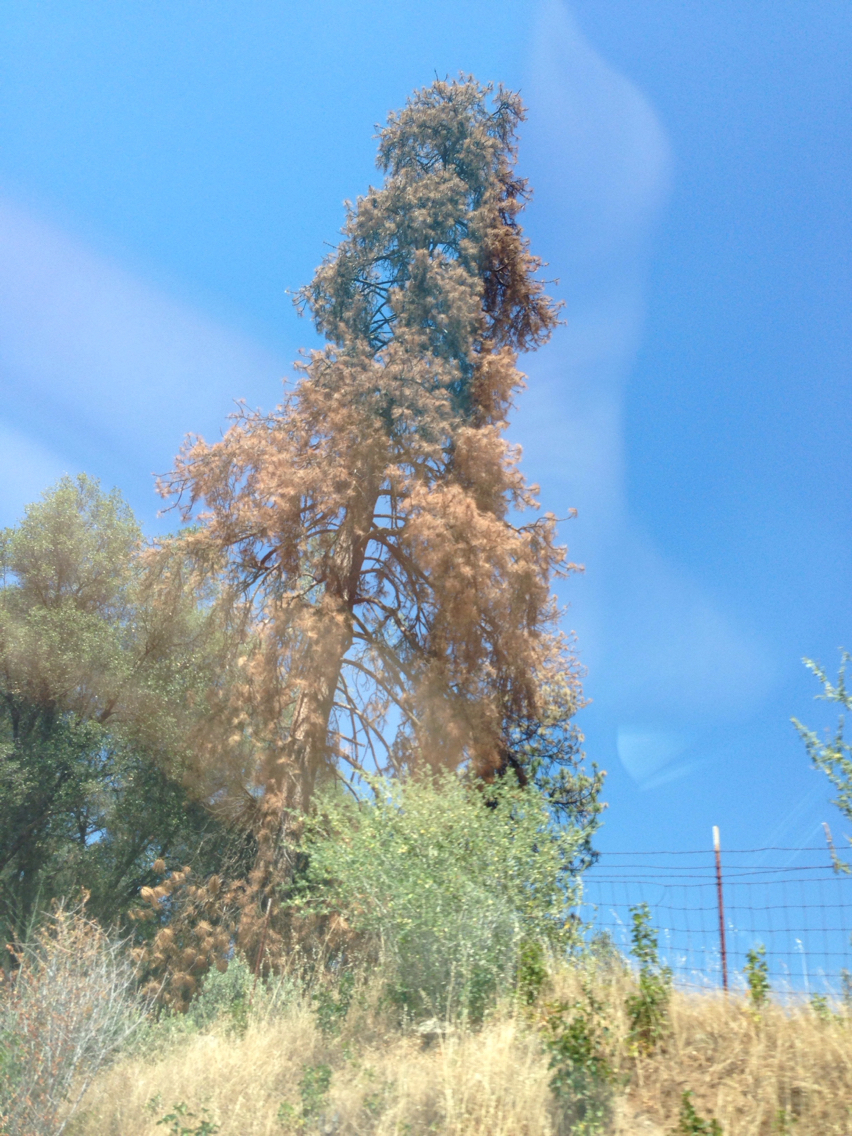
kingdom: Plantae
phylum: Tracheophyta
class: Pinopsida
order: Pinales
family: Pinaceae
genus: Pinus
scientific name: Pinus ponderosa
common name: Western yellow-pine
